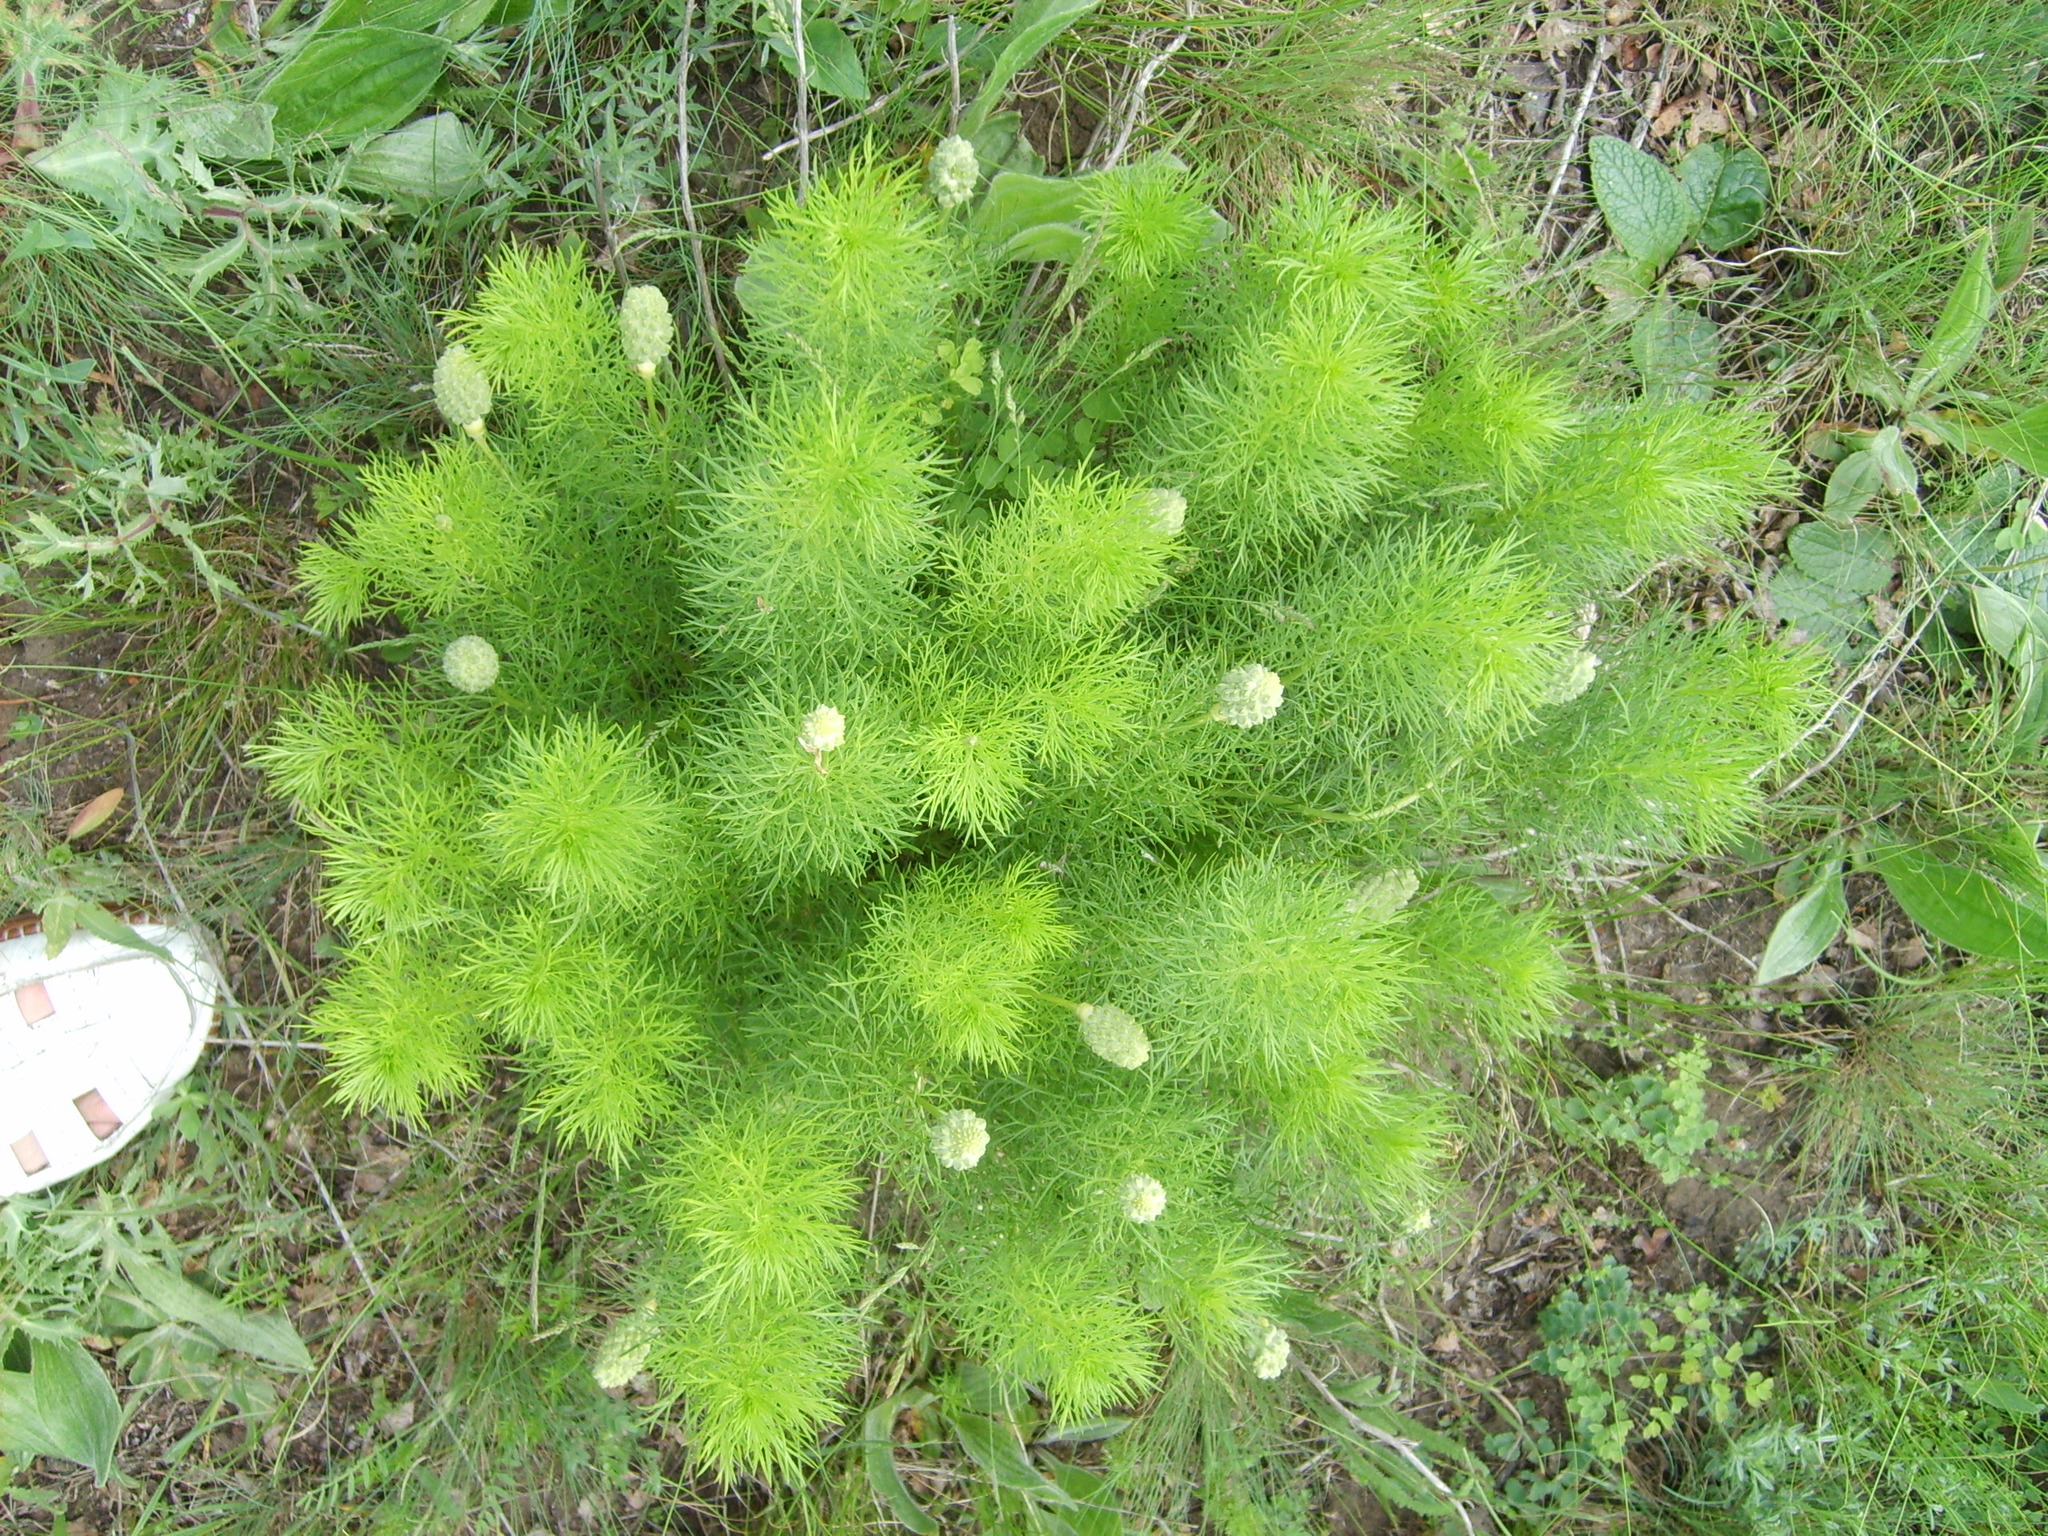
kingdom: Plantae
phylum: Tracheophyta
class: Magnoliopsida
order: Ranunculales
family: Ranunculaceae
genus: Adonis
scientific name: Adonis vernalis
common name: Yellow pheasants-eye
